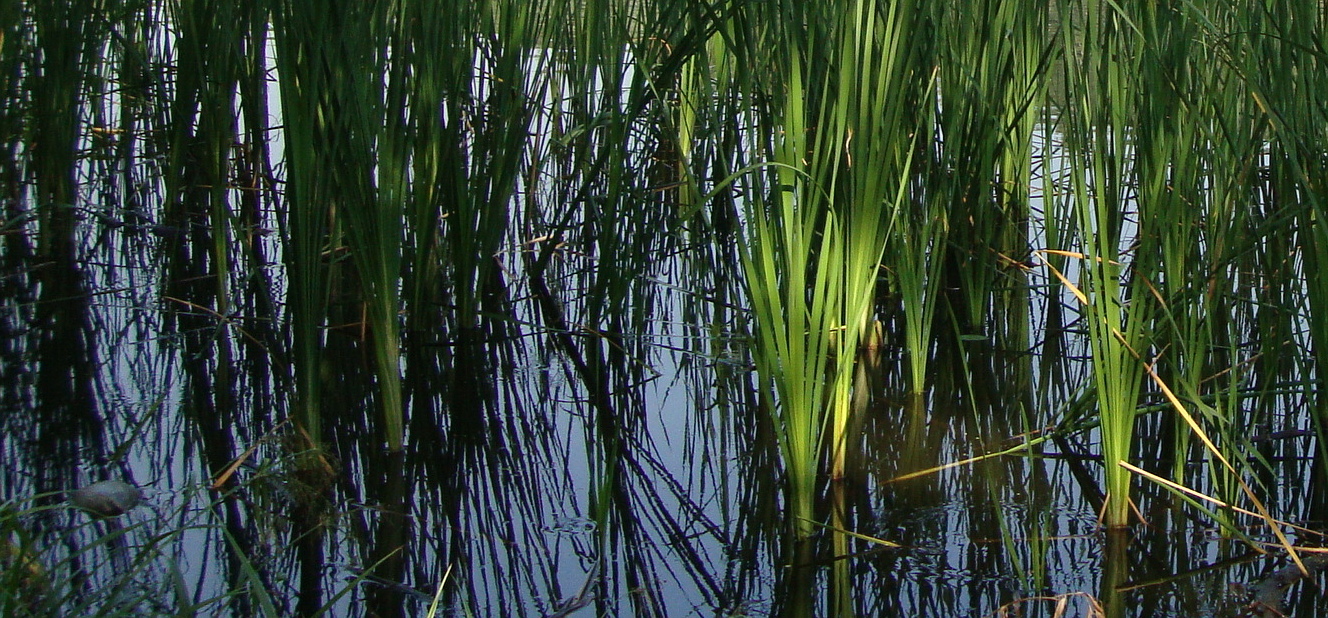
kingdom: Plantae
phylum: Tracheophyta
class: Liliopsida
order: Poales
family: Typhaceae
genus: Typha
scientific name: Typha latifolia
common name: Broadleaf cattail
